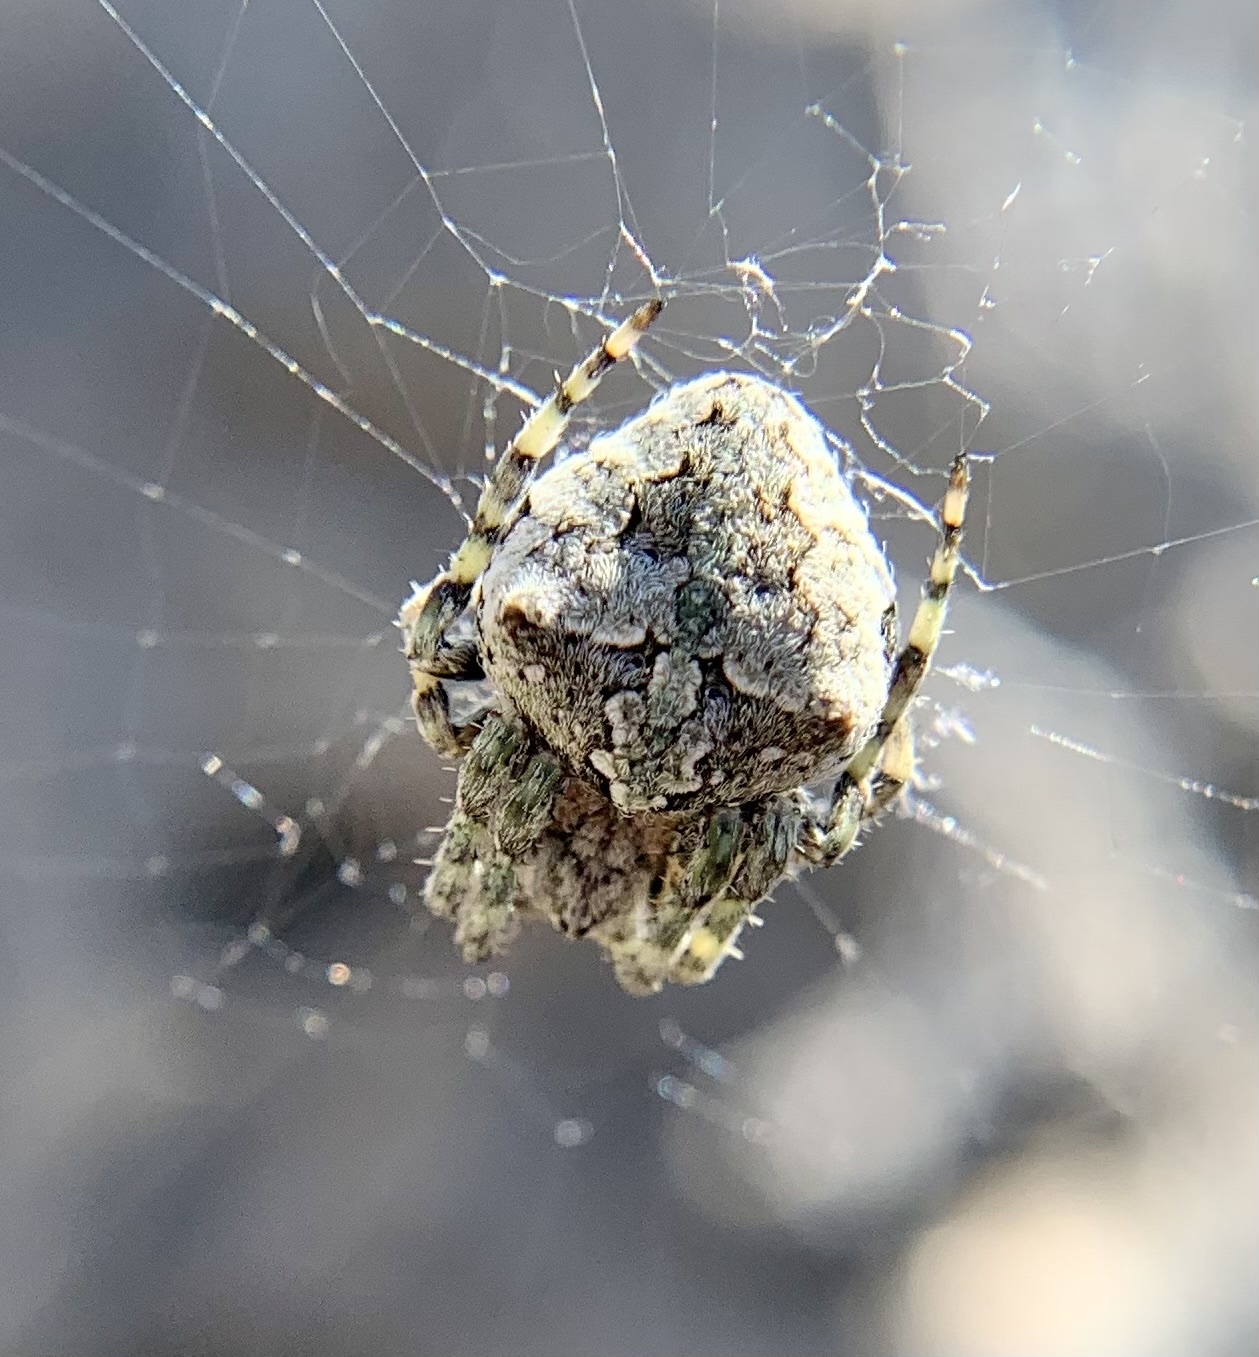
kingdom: Animalia
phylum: Arthropoda
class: Arachnida
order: Araneae
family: Araneidae
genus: Araneus
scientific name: Araneus circe
